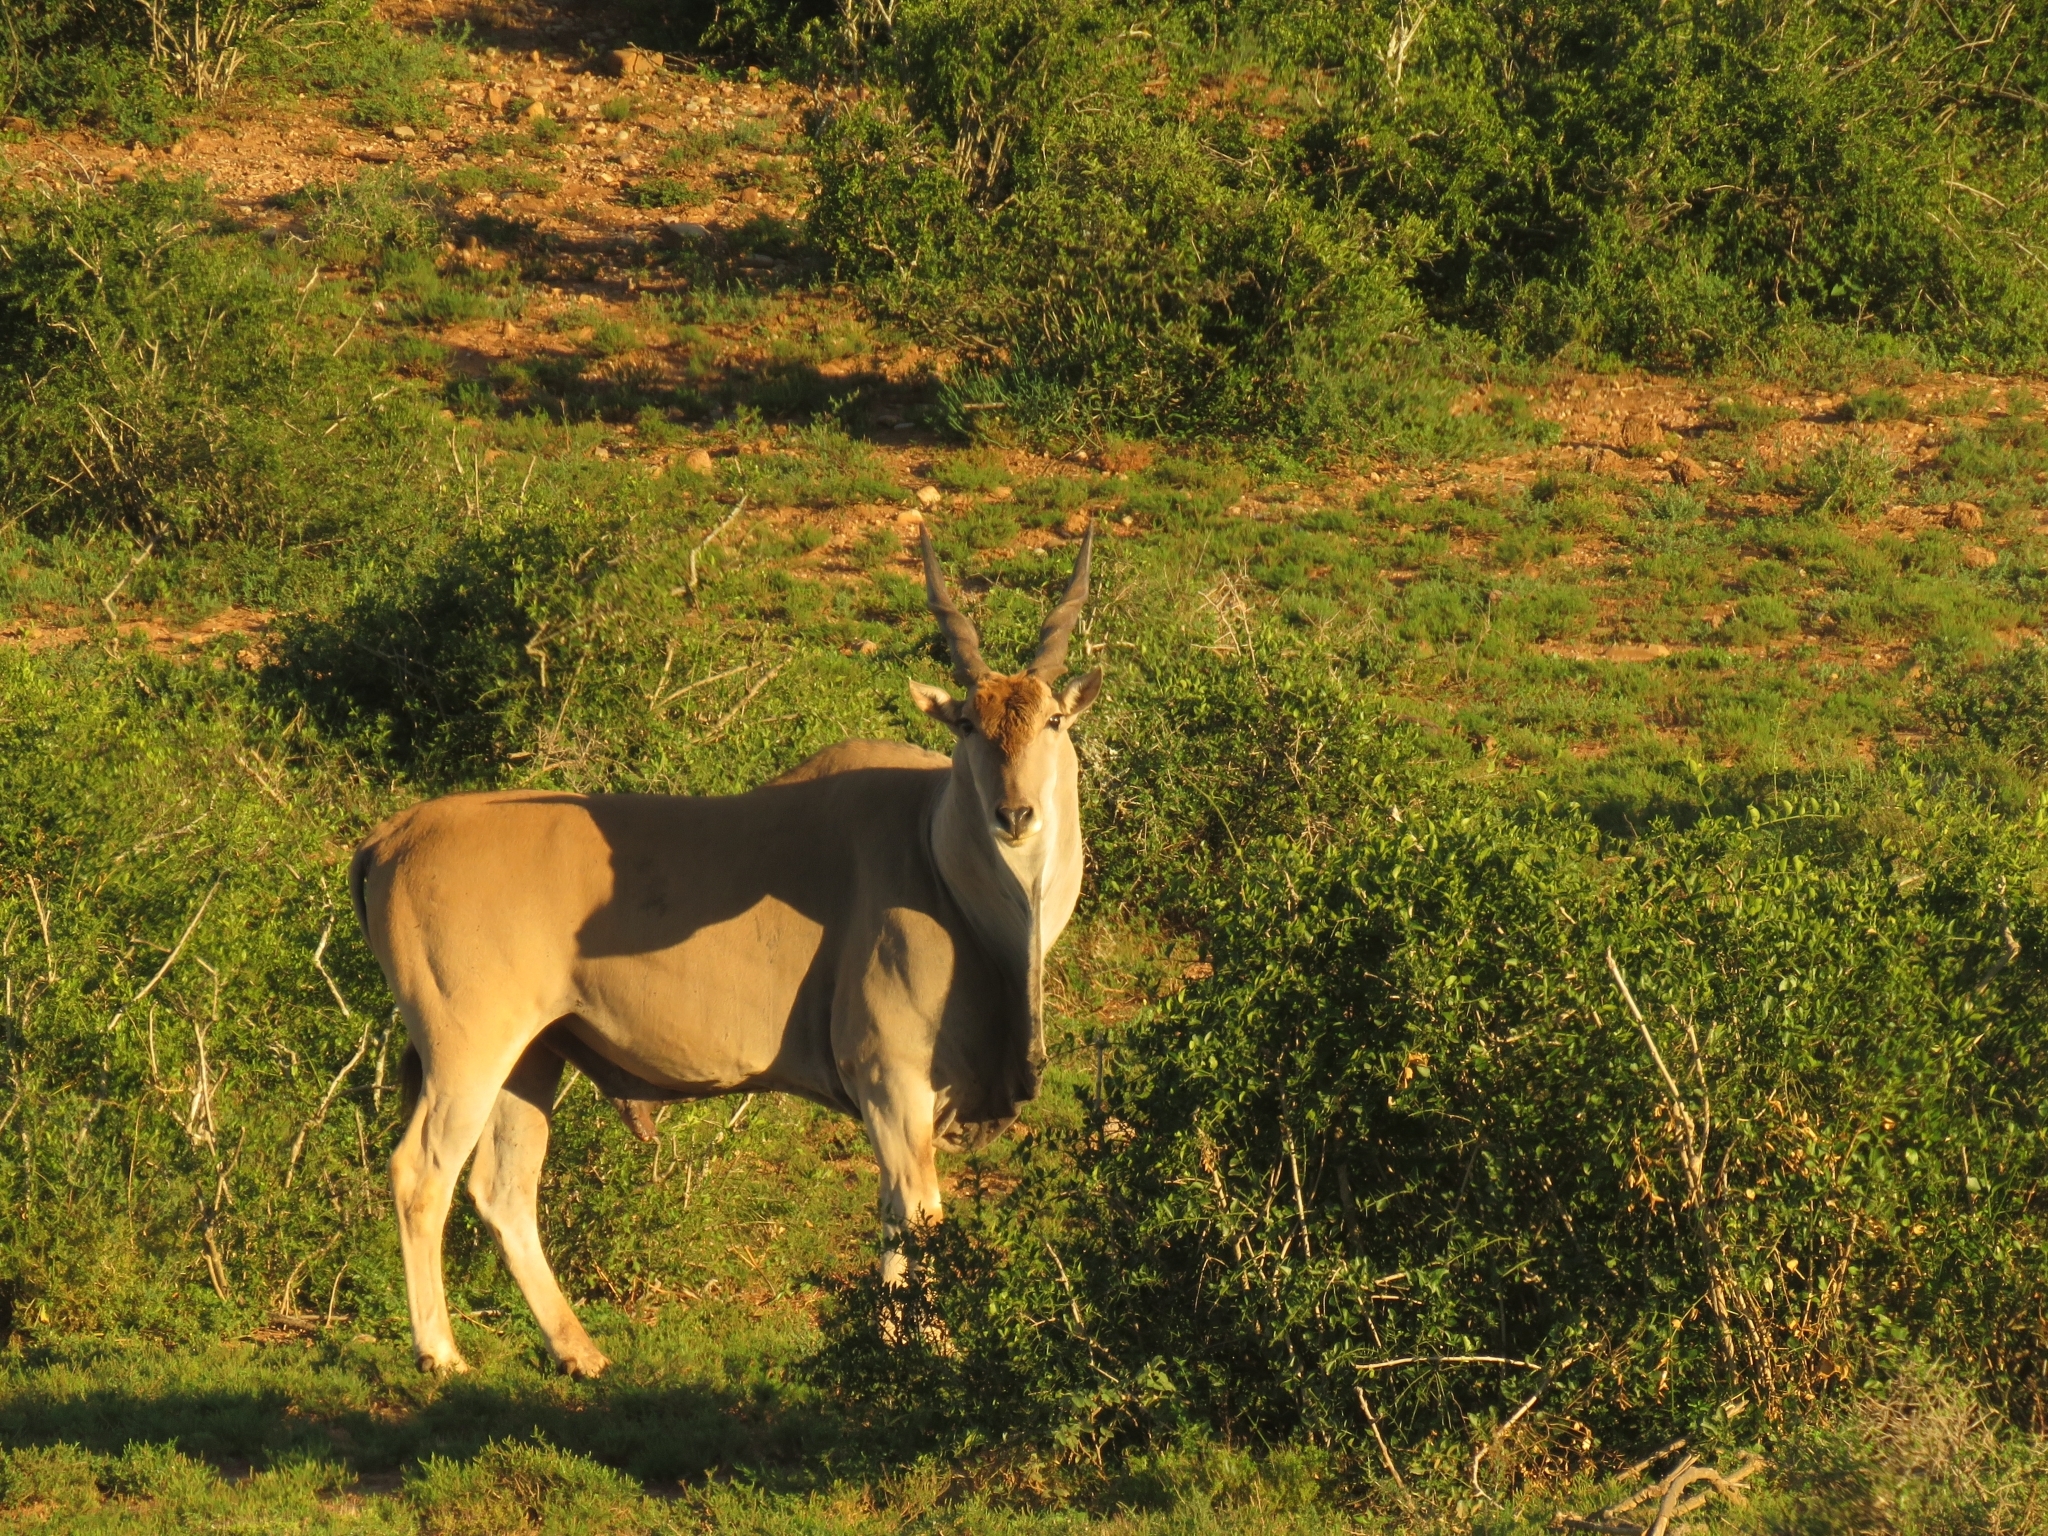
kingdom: Animalia
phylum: Chordata
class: Mammalia
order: Artiodactyla
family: Bovidae
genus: Taurotragus
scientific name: Taurotragus oryx
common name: Common eland
